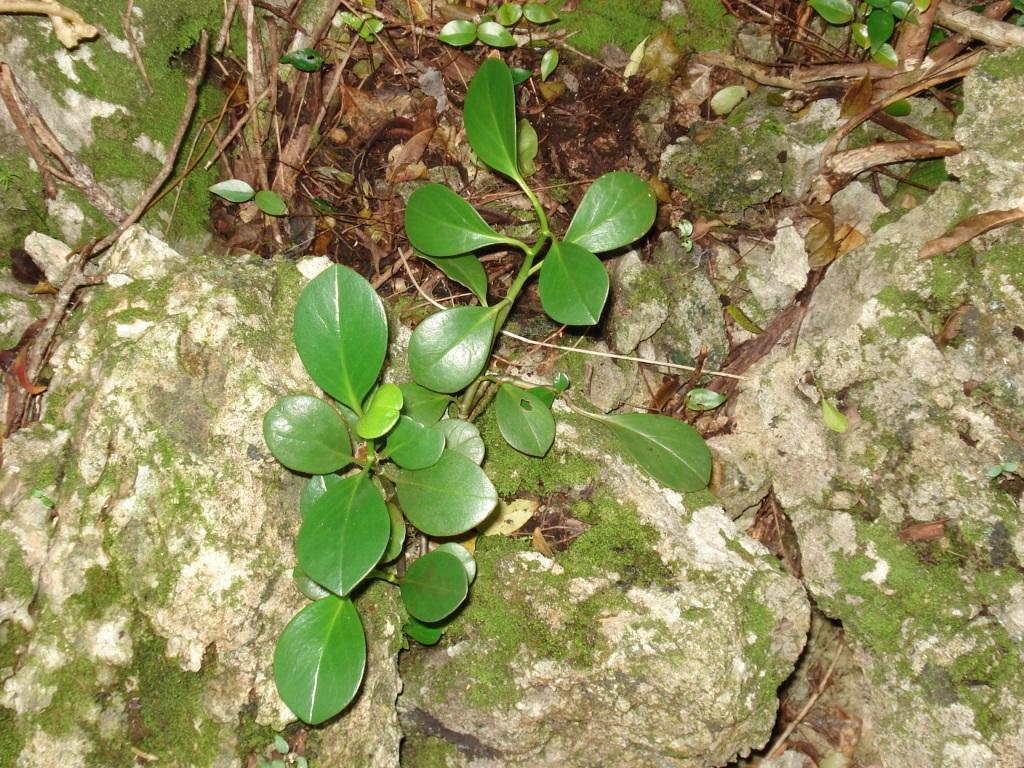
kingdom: Plantae
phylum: Tracheophyta
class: Magnoliopsida
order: Piperales
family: Piperaceae
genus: Peperomia
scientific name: Peperomia septentrionalis
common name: Wild bermuda pepper
